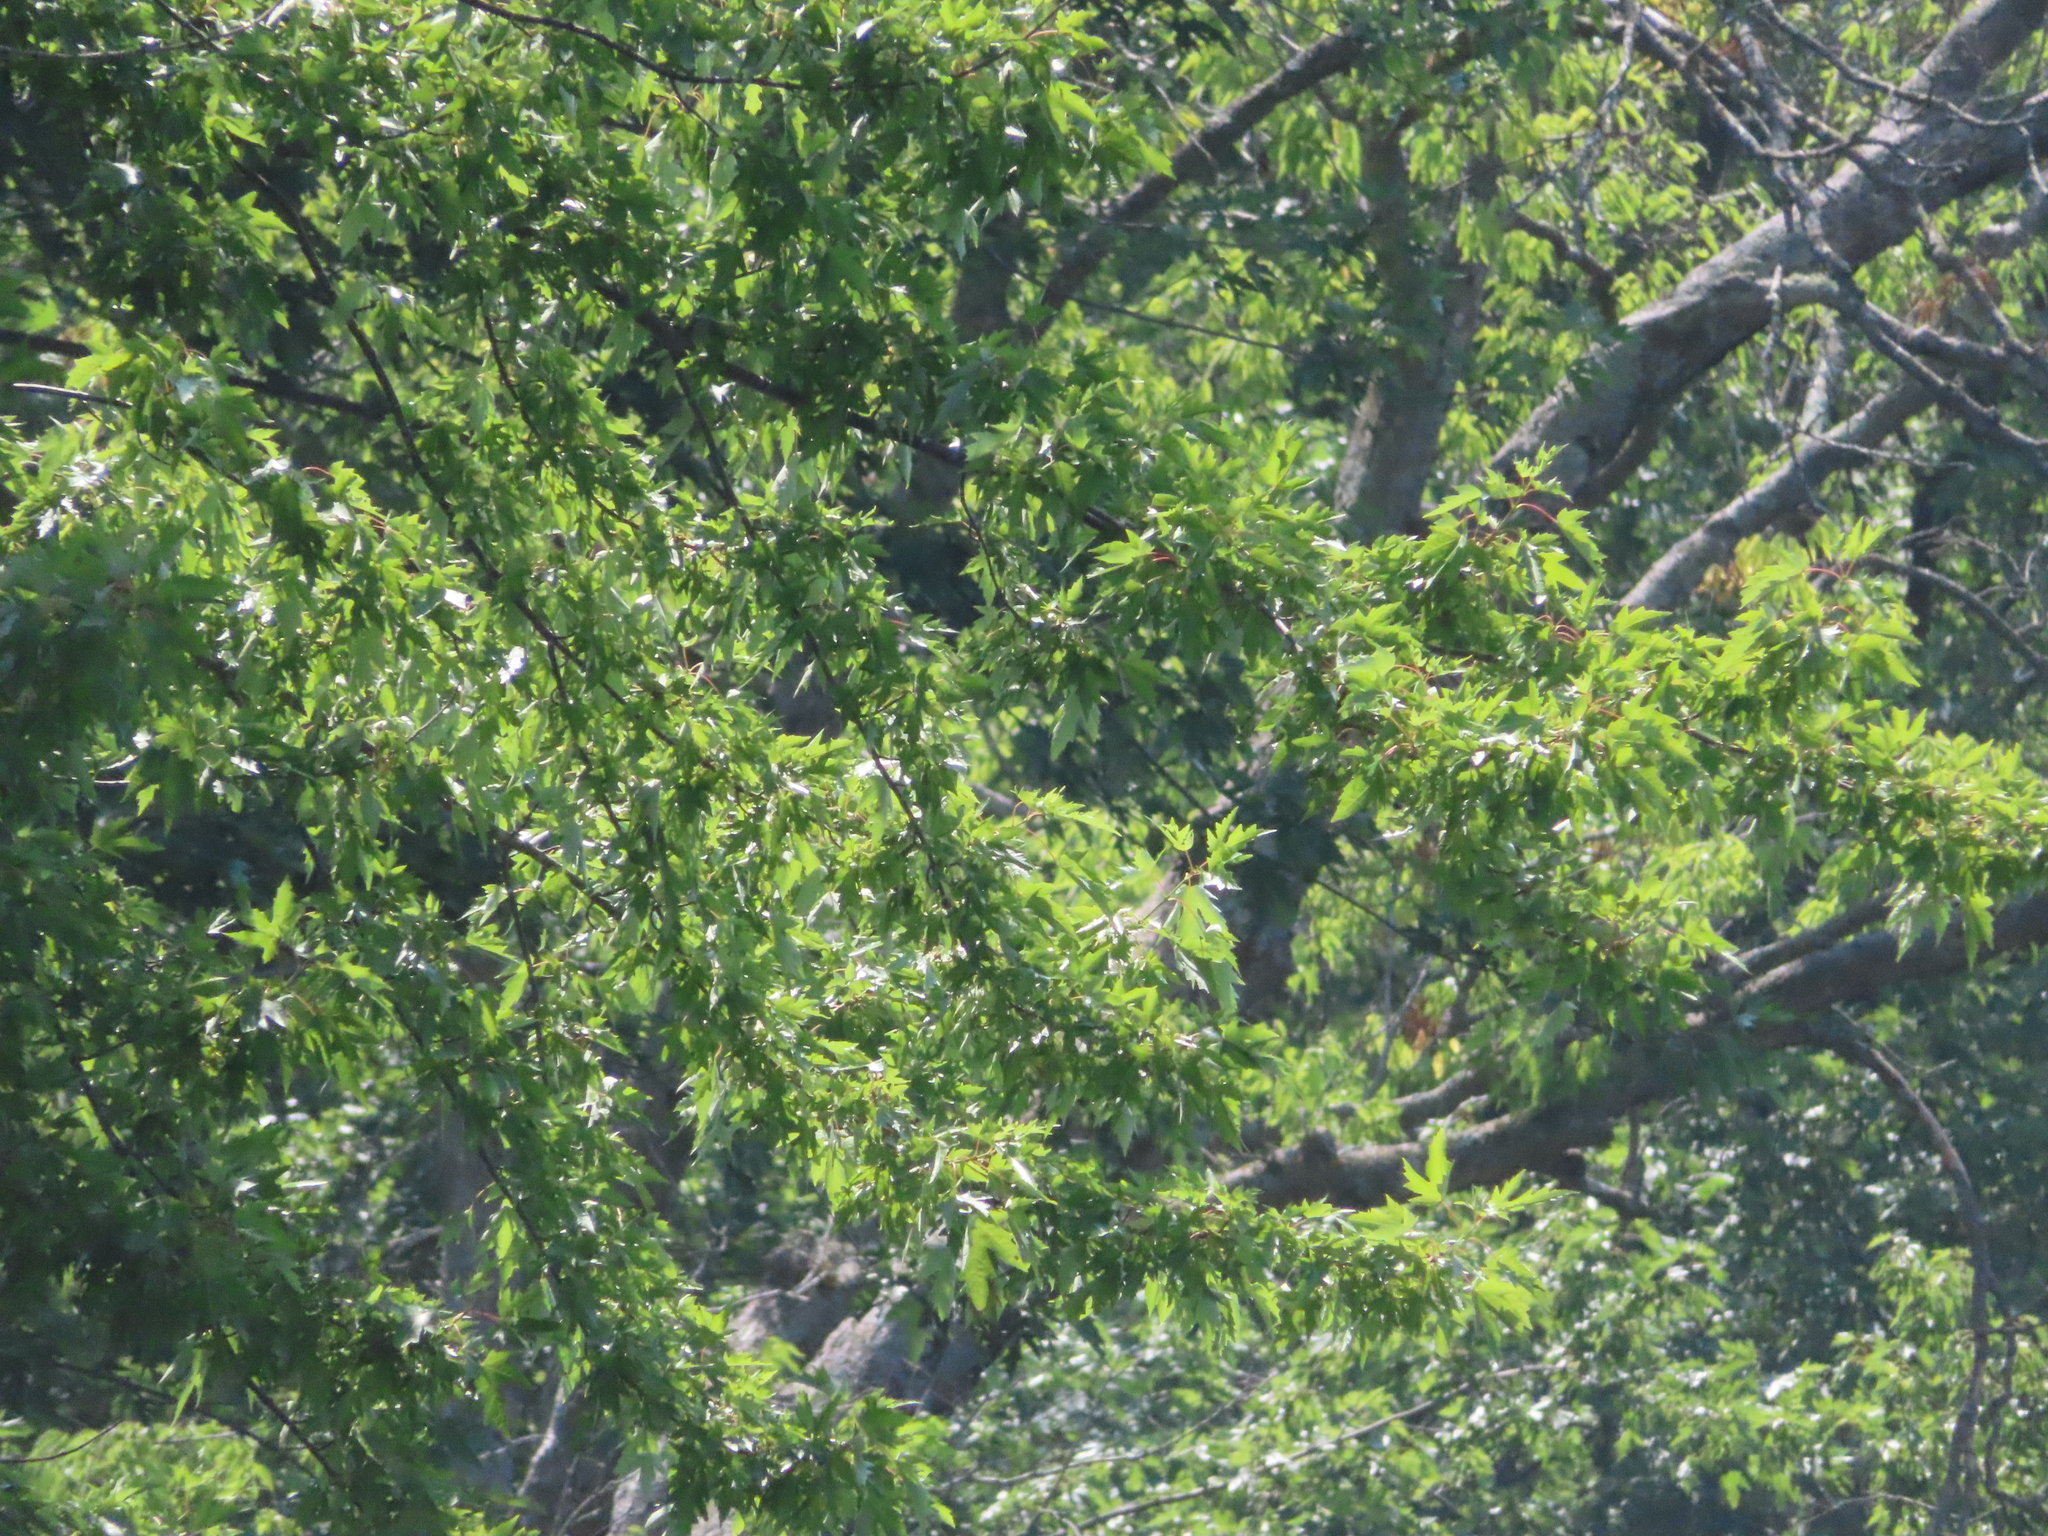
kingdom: Plantae
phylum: Tracheophyta
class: Magnoliopsida
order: Sapindales
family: Sapindaceae
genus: Acer
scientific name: Acer saccharinum
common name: Silver maple
